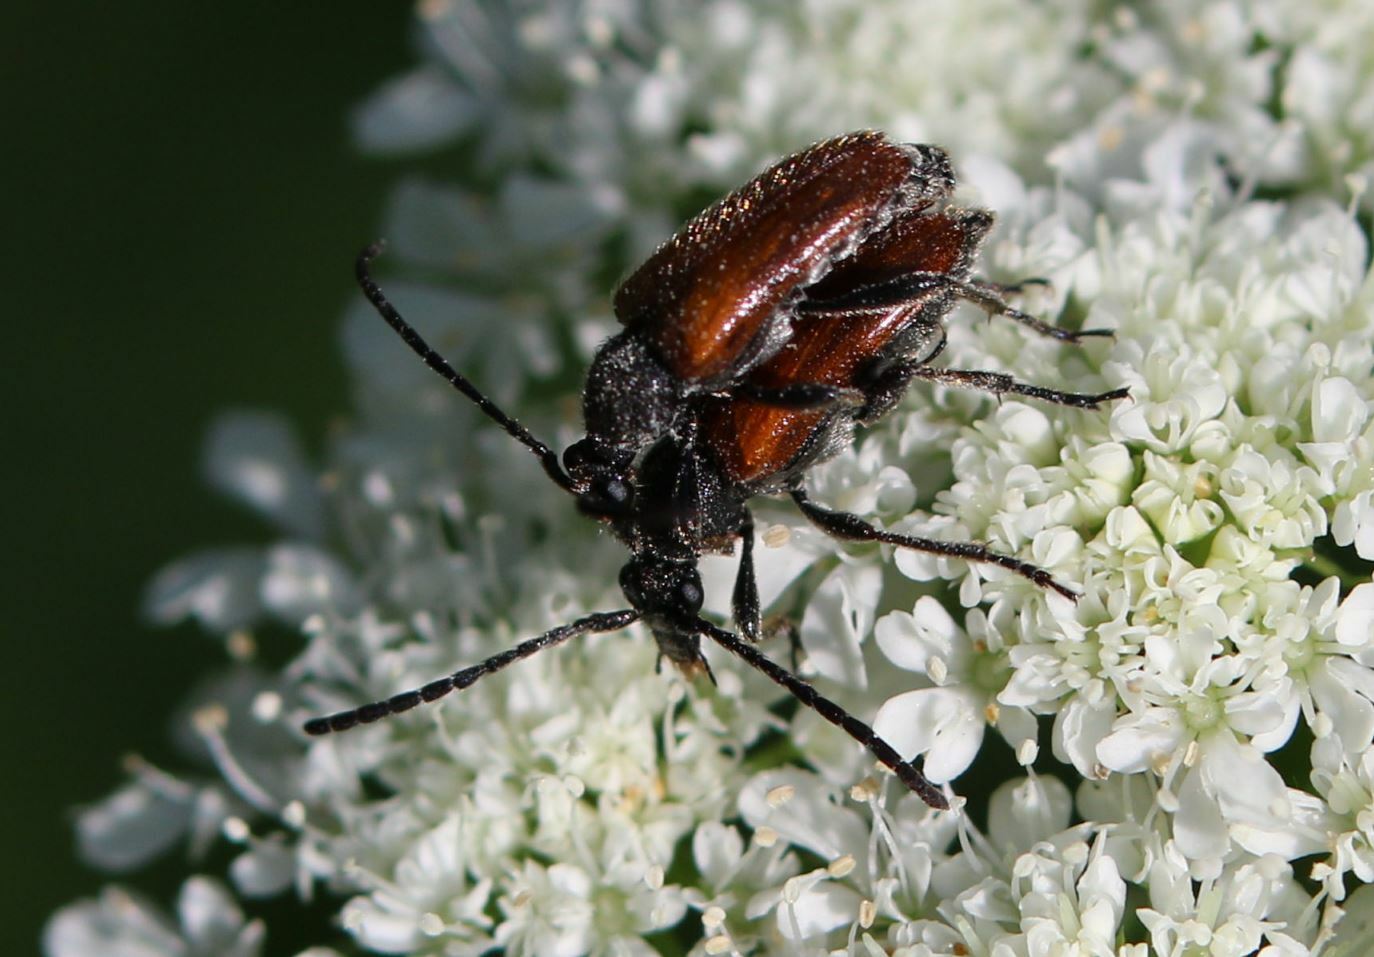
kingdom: Animalia
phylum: Arthropoda
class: Insecta
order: Coleoptera
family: Cerambycidae
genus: Pseudovadonia
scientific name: Pseudovadonia livida
